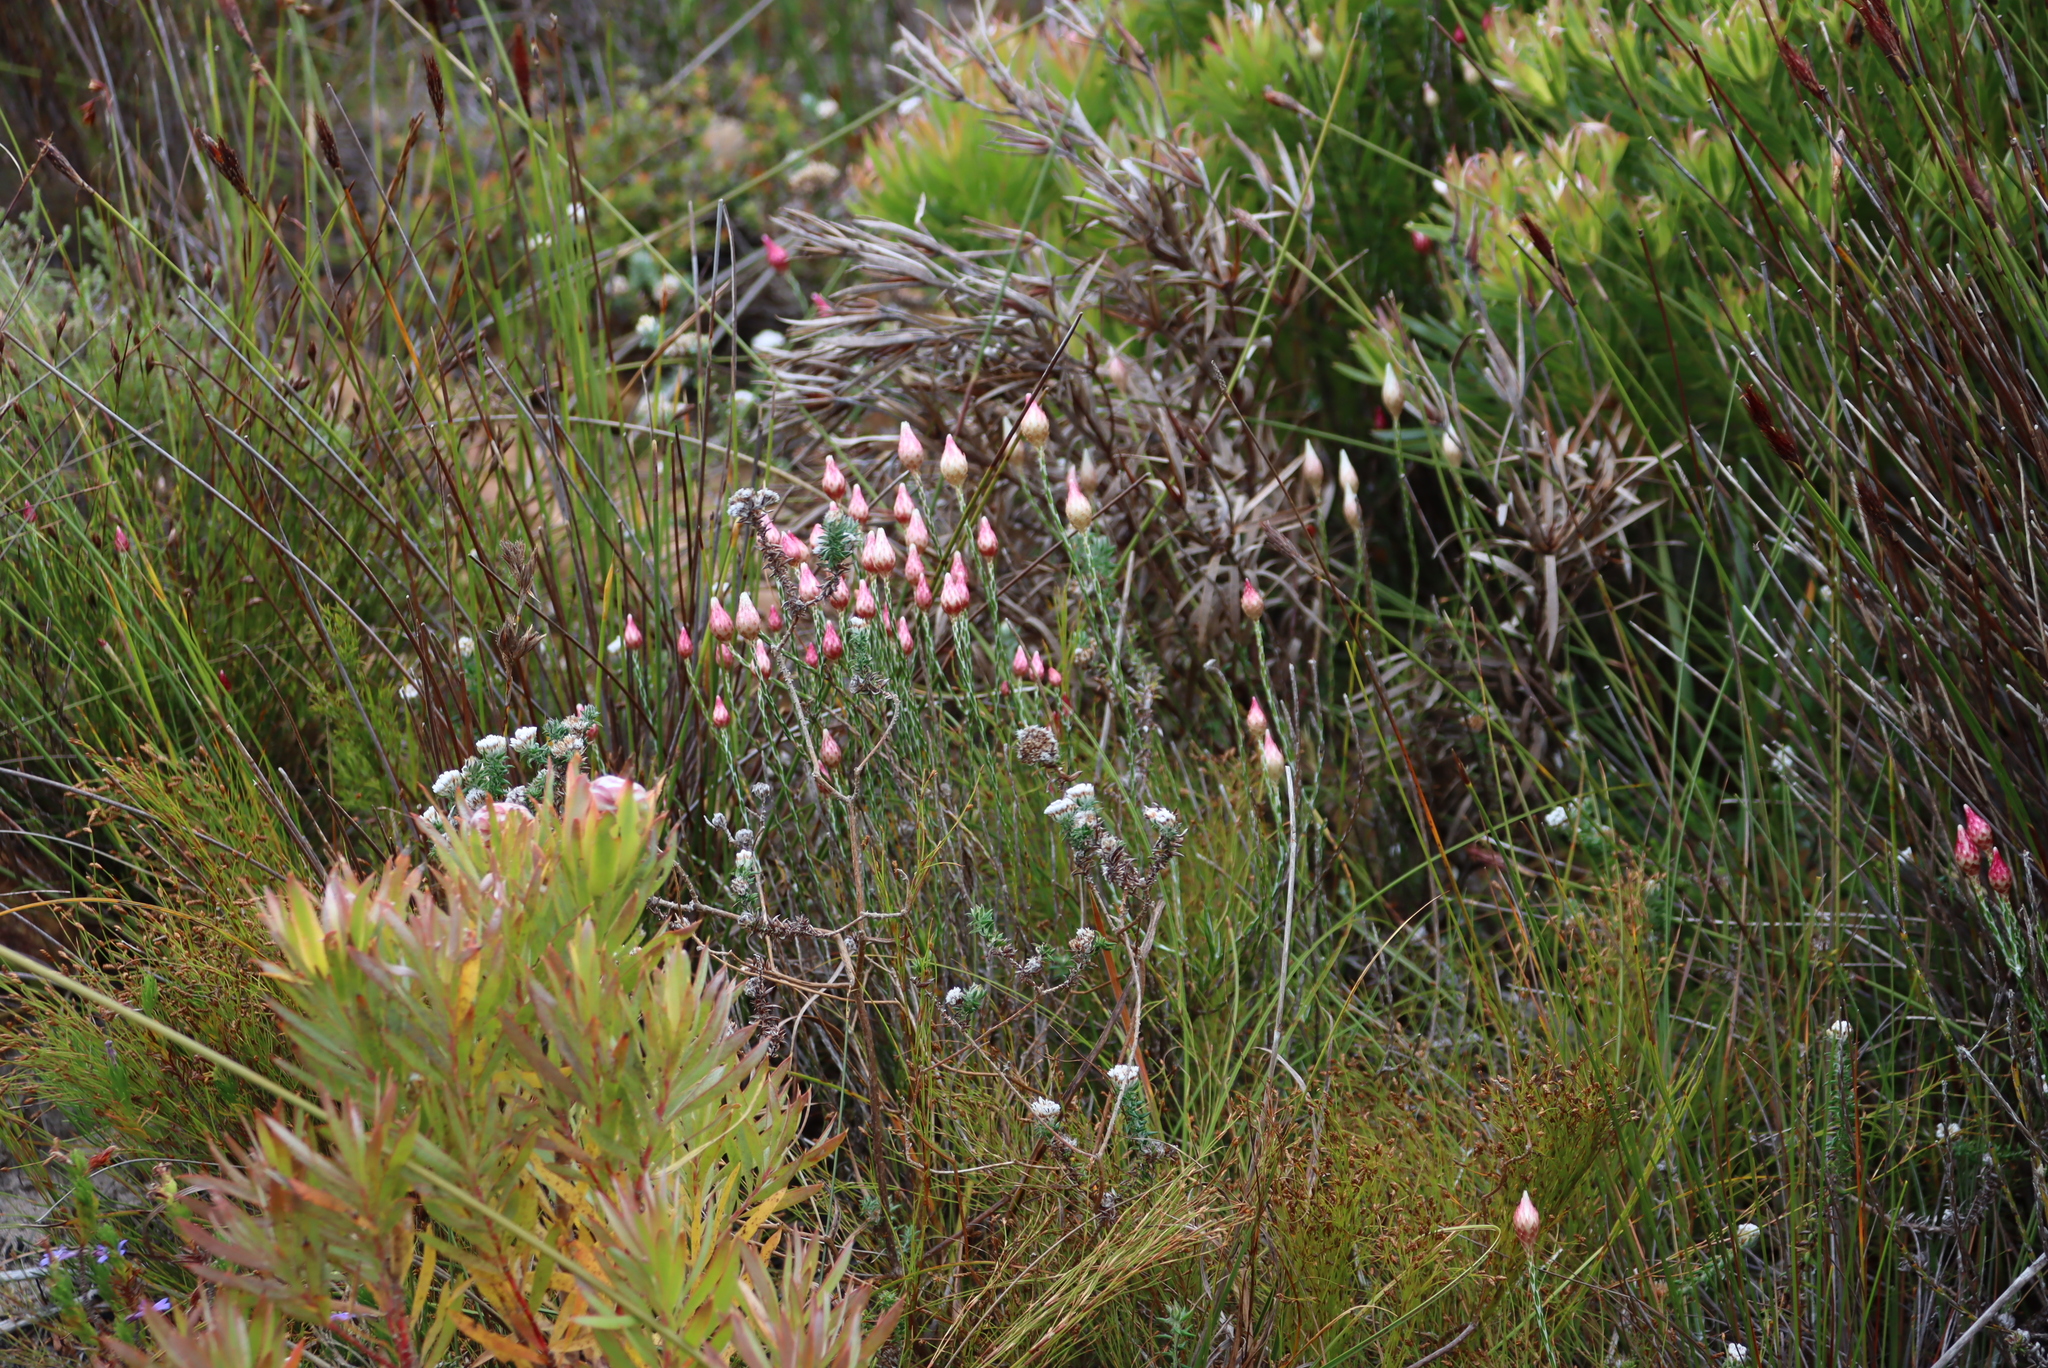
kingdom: Plantae
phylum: Tracheophyta
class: Magnoliopsida
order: Asterales
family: Asteraceae
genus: Edmondia
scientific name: Edmondia sesamoides
